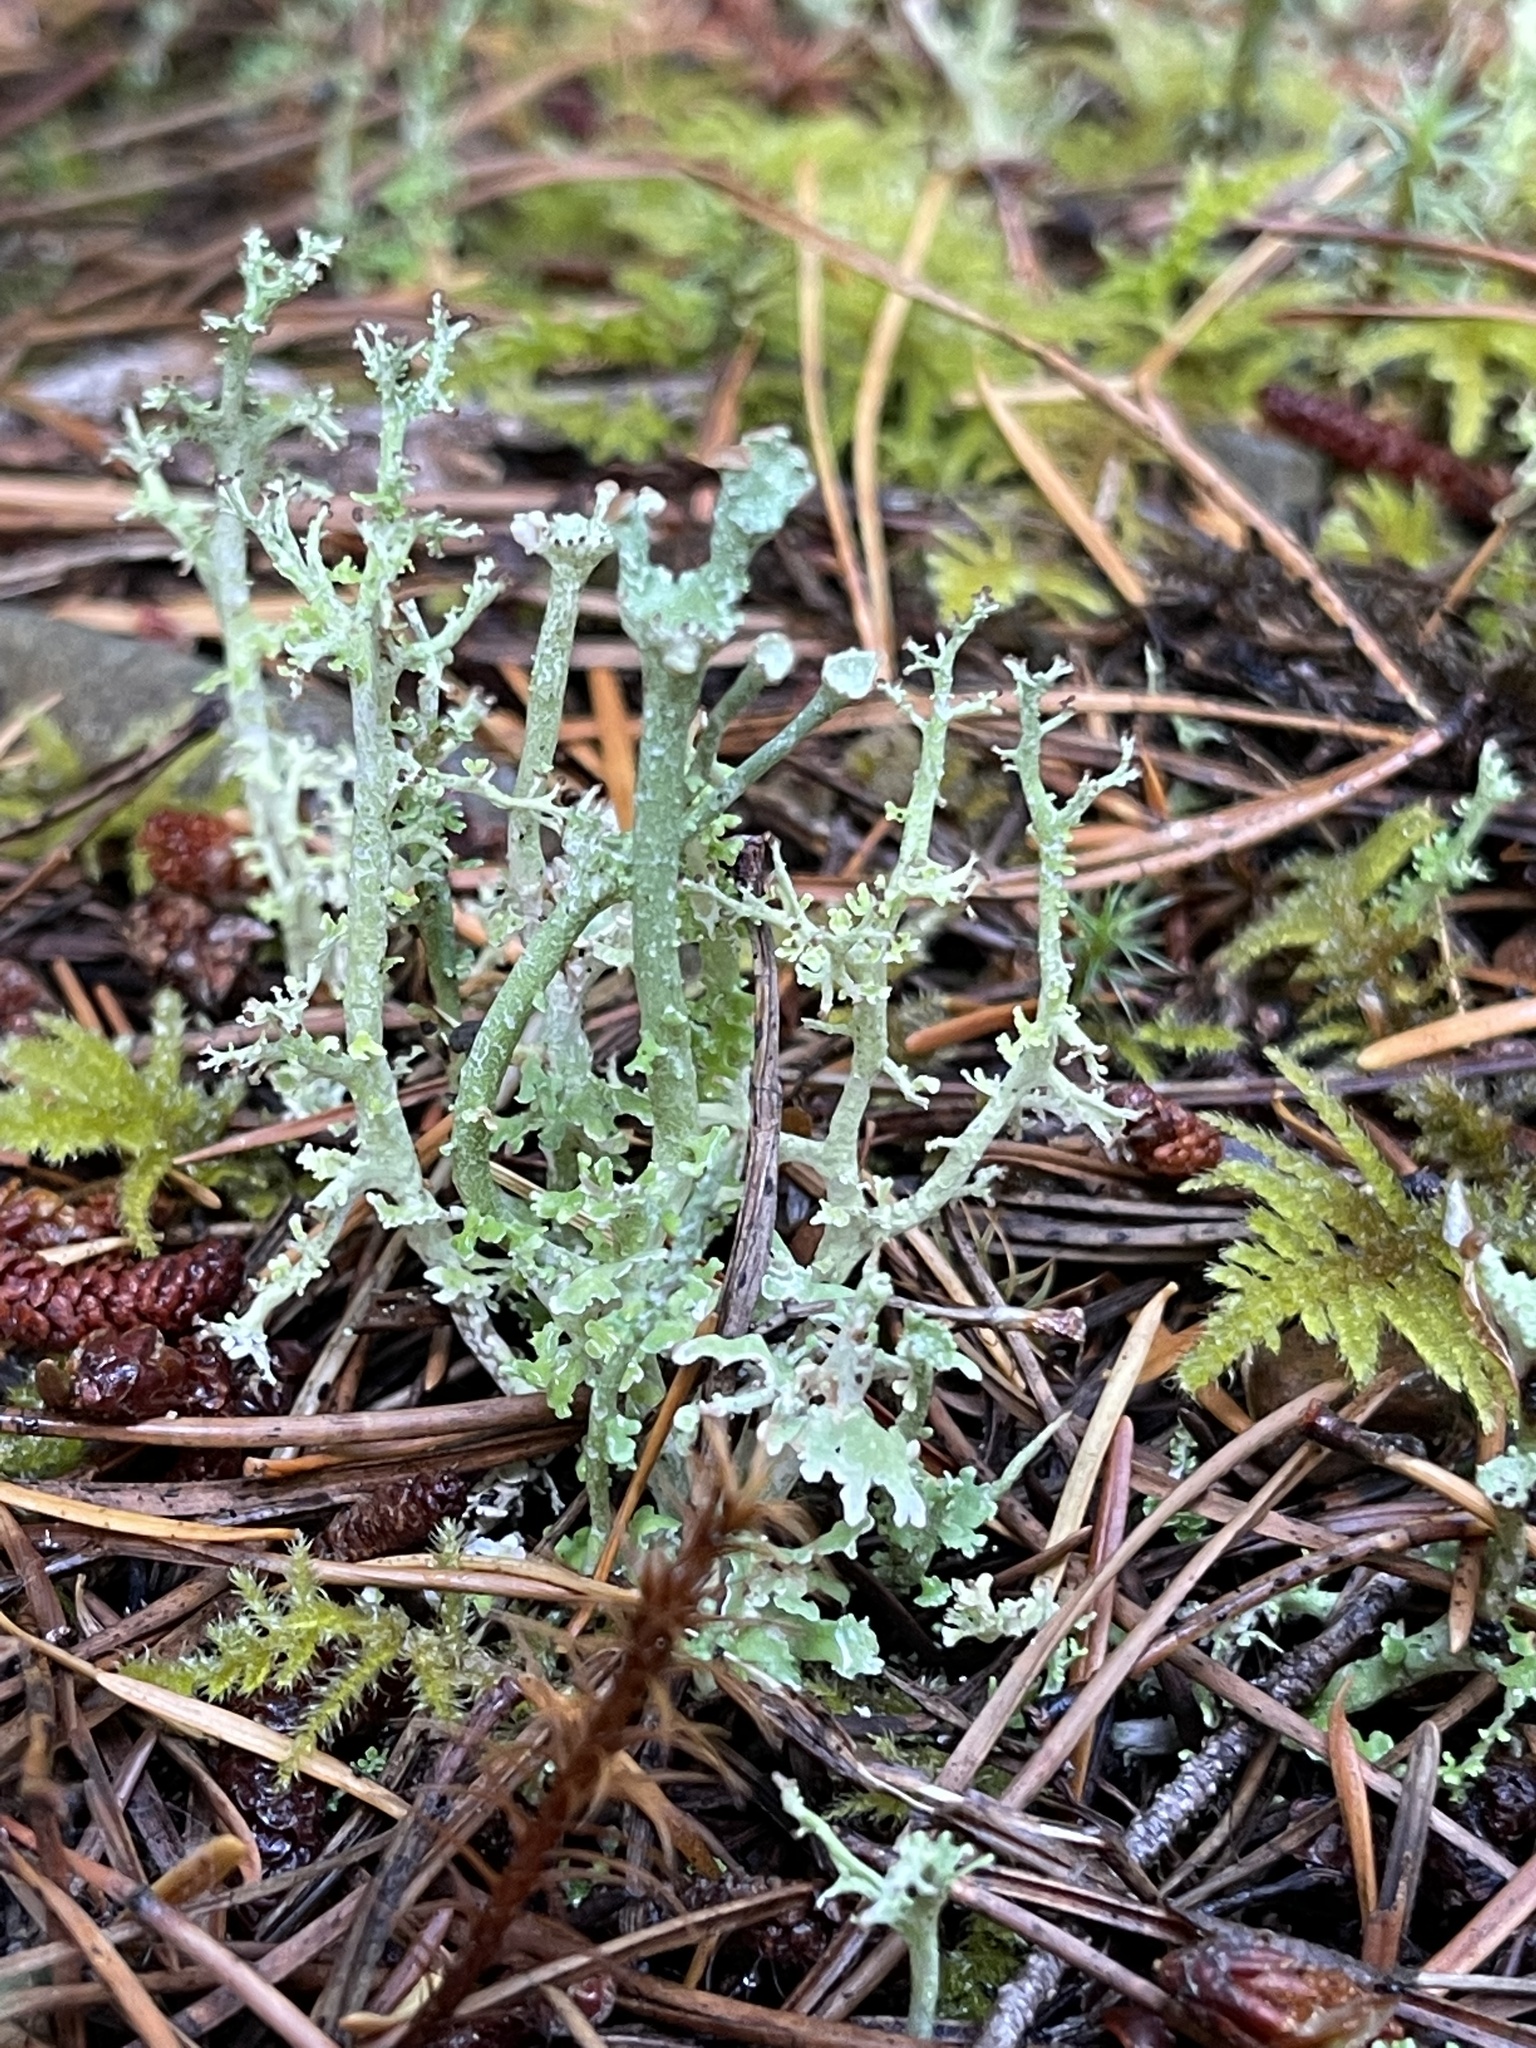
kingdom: Fungi
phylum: Ascomycota
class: Lecanoromycetes
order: Lecanorales
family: Cladoniaceae
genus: Cladonia
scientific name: Cladonia furcata
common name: Many-forked cladonia
